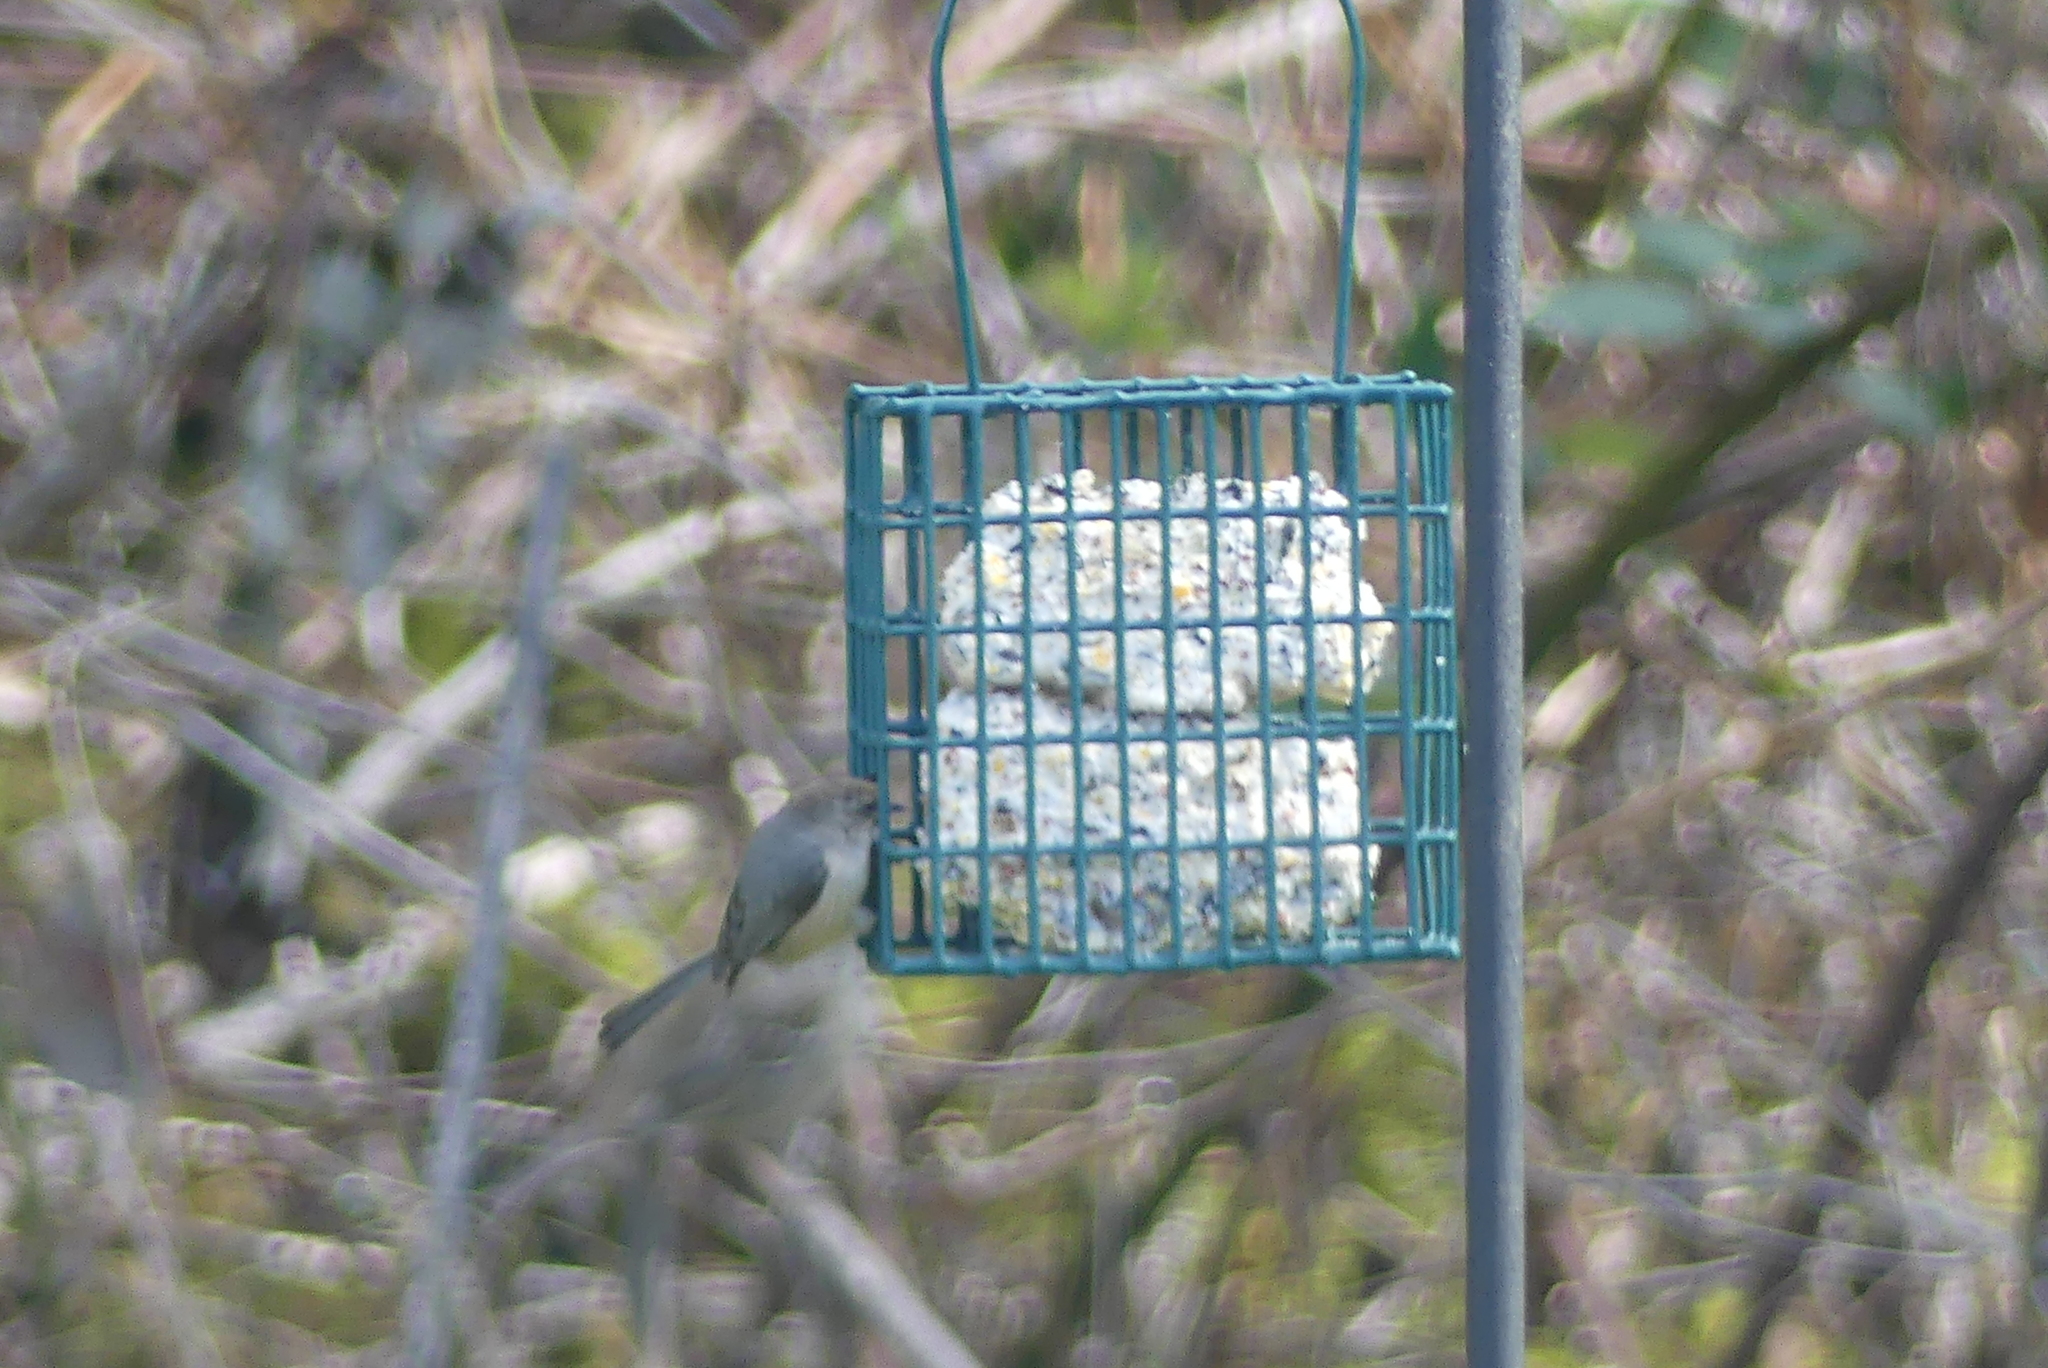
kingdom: Animalia
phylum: Chordata
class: Aves
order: Passeriformes
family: Aegithalidae
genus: Psaltriparus
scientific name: Psaltriparus minimus
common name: American bushtit
